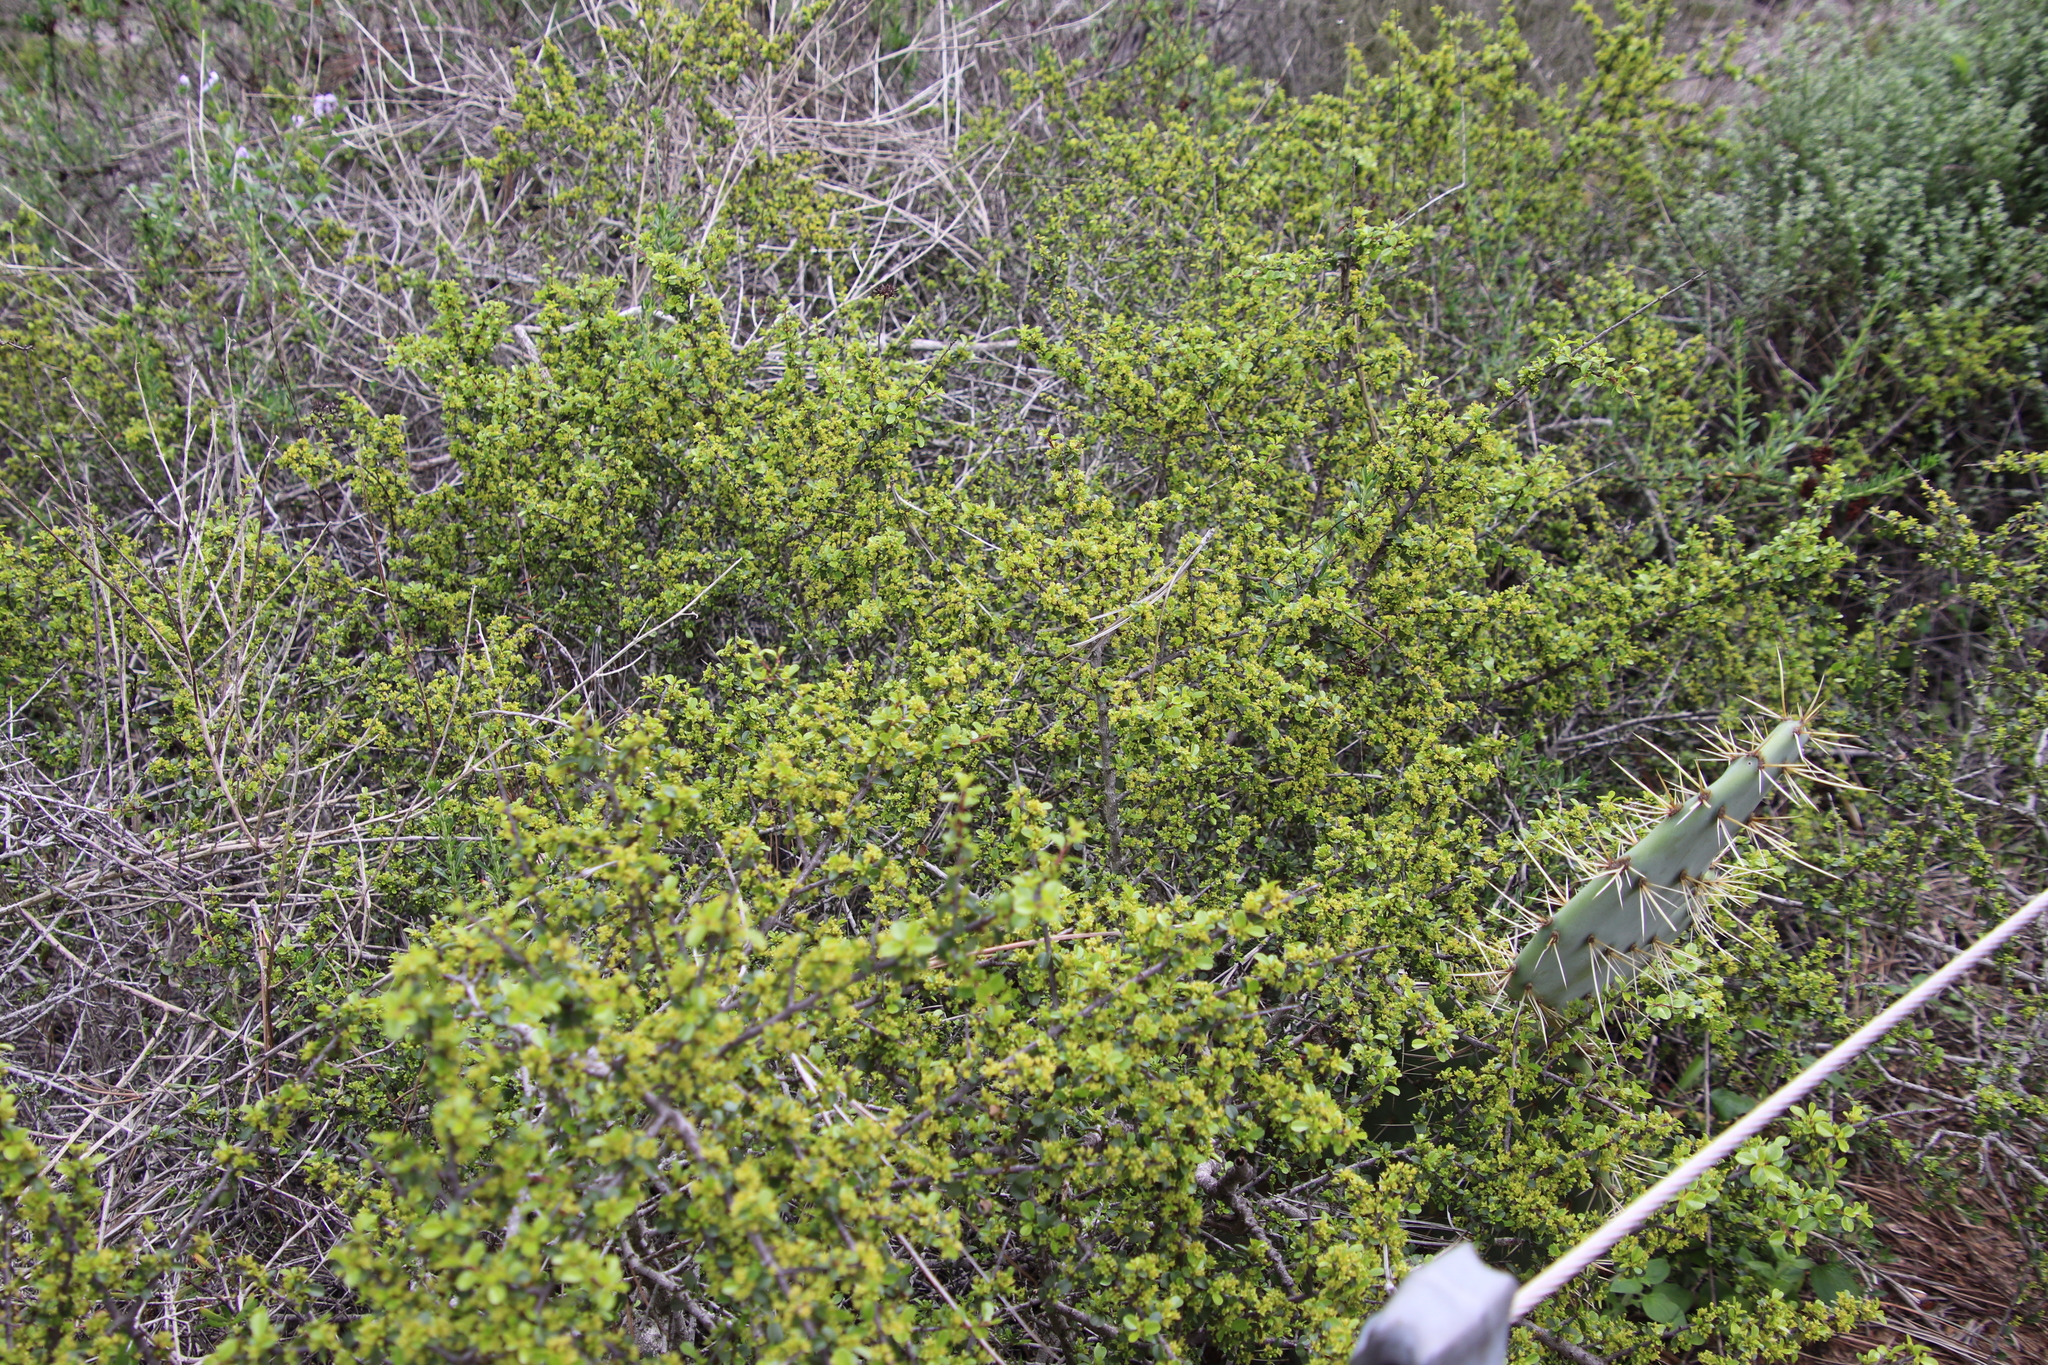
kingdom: Plantae
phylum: Tracheophyta
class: Magnoliopsida
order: Rosales
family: Rhamnaceae
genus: Endotropis
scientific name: Endotropis crocea
